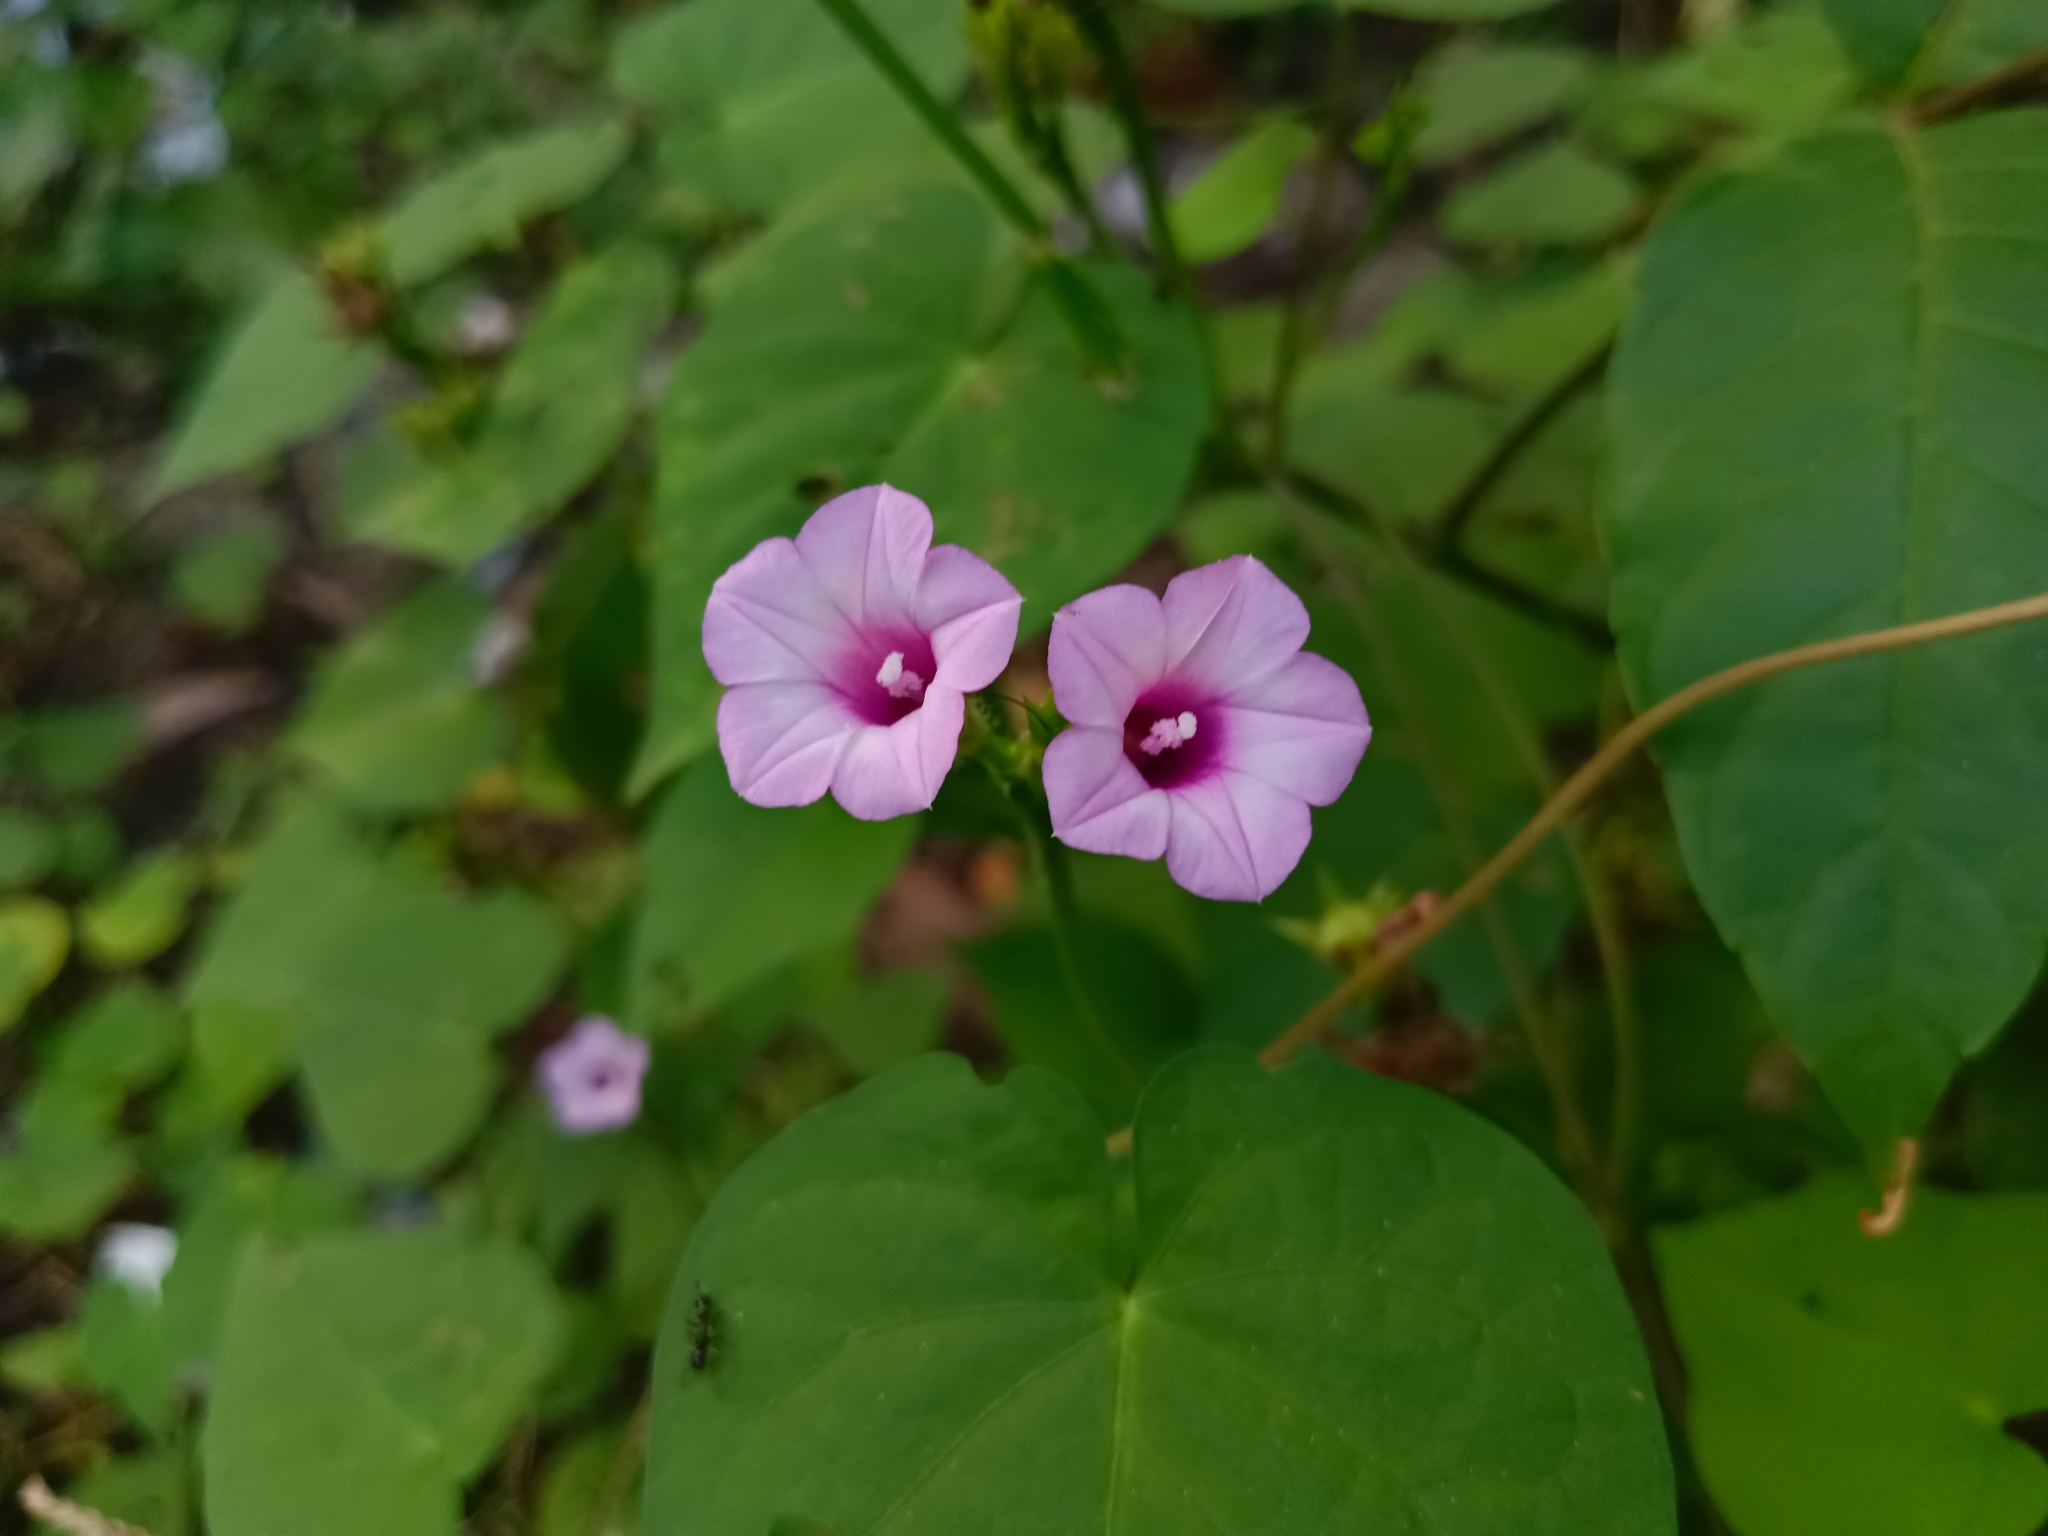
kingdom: Plantae
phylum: Tracheophyta
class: Magnoliopsida
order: Solanales
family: Convolvulaceae
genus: Ipomoea
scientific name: Ipomoea triloba
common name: Little-bell
